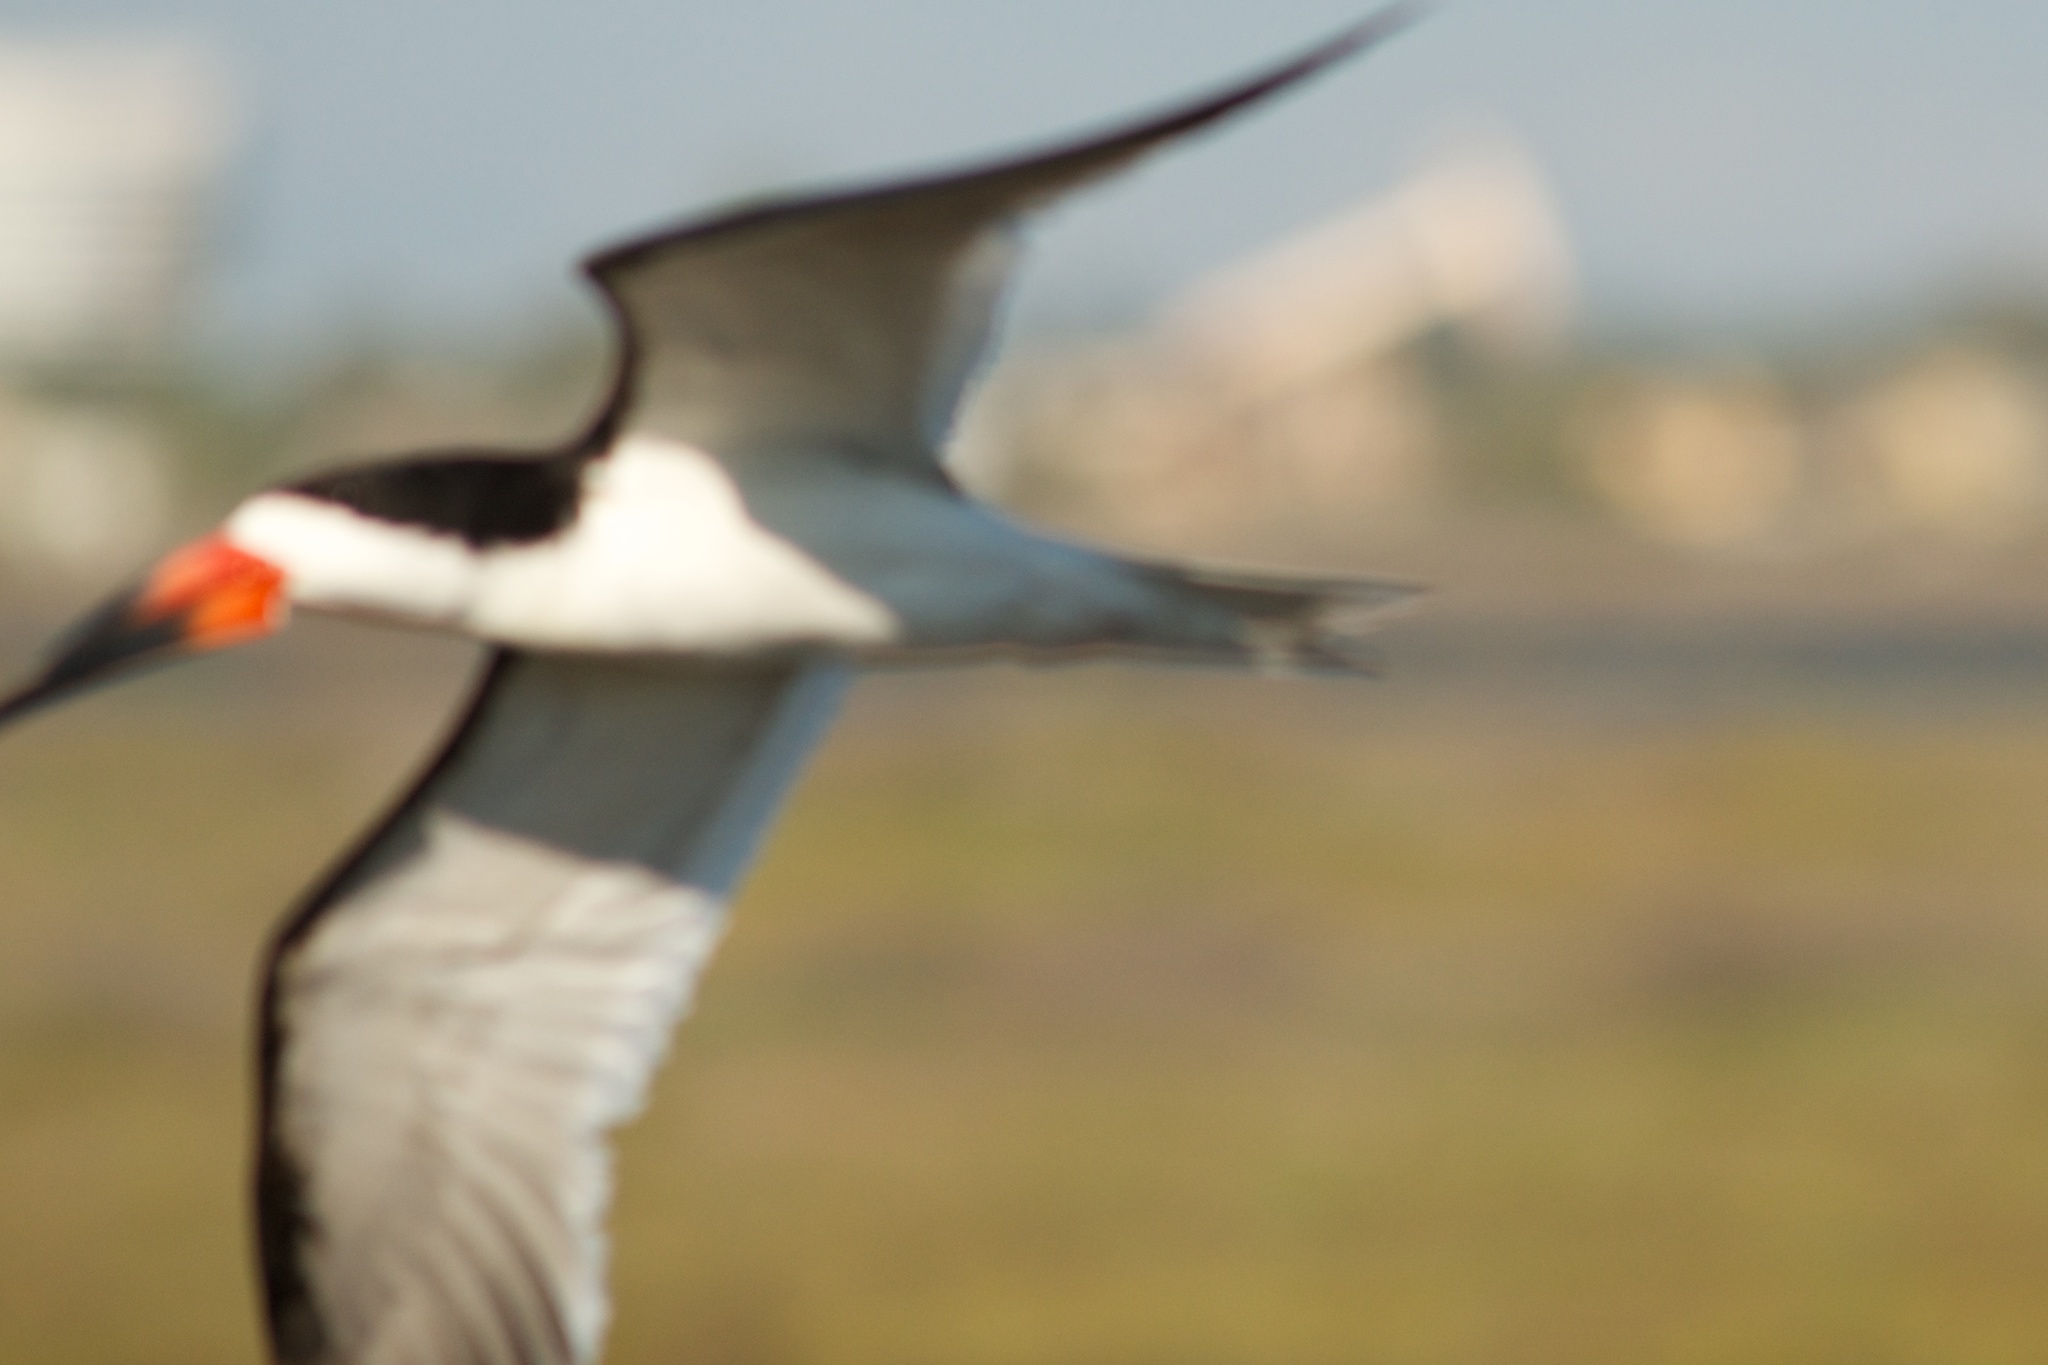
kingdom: Animalia
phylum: Chordata
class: Aves
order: Charadriiformes
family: Laridae
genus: Rynchops
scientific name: Rynchops niger
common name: Black skimmer
